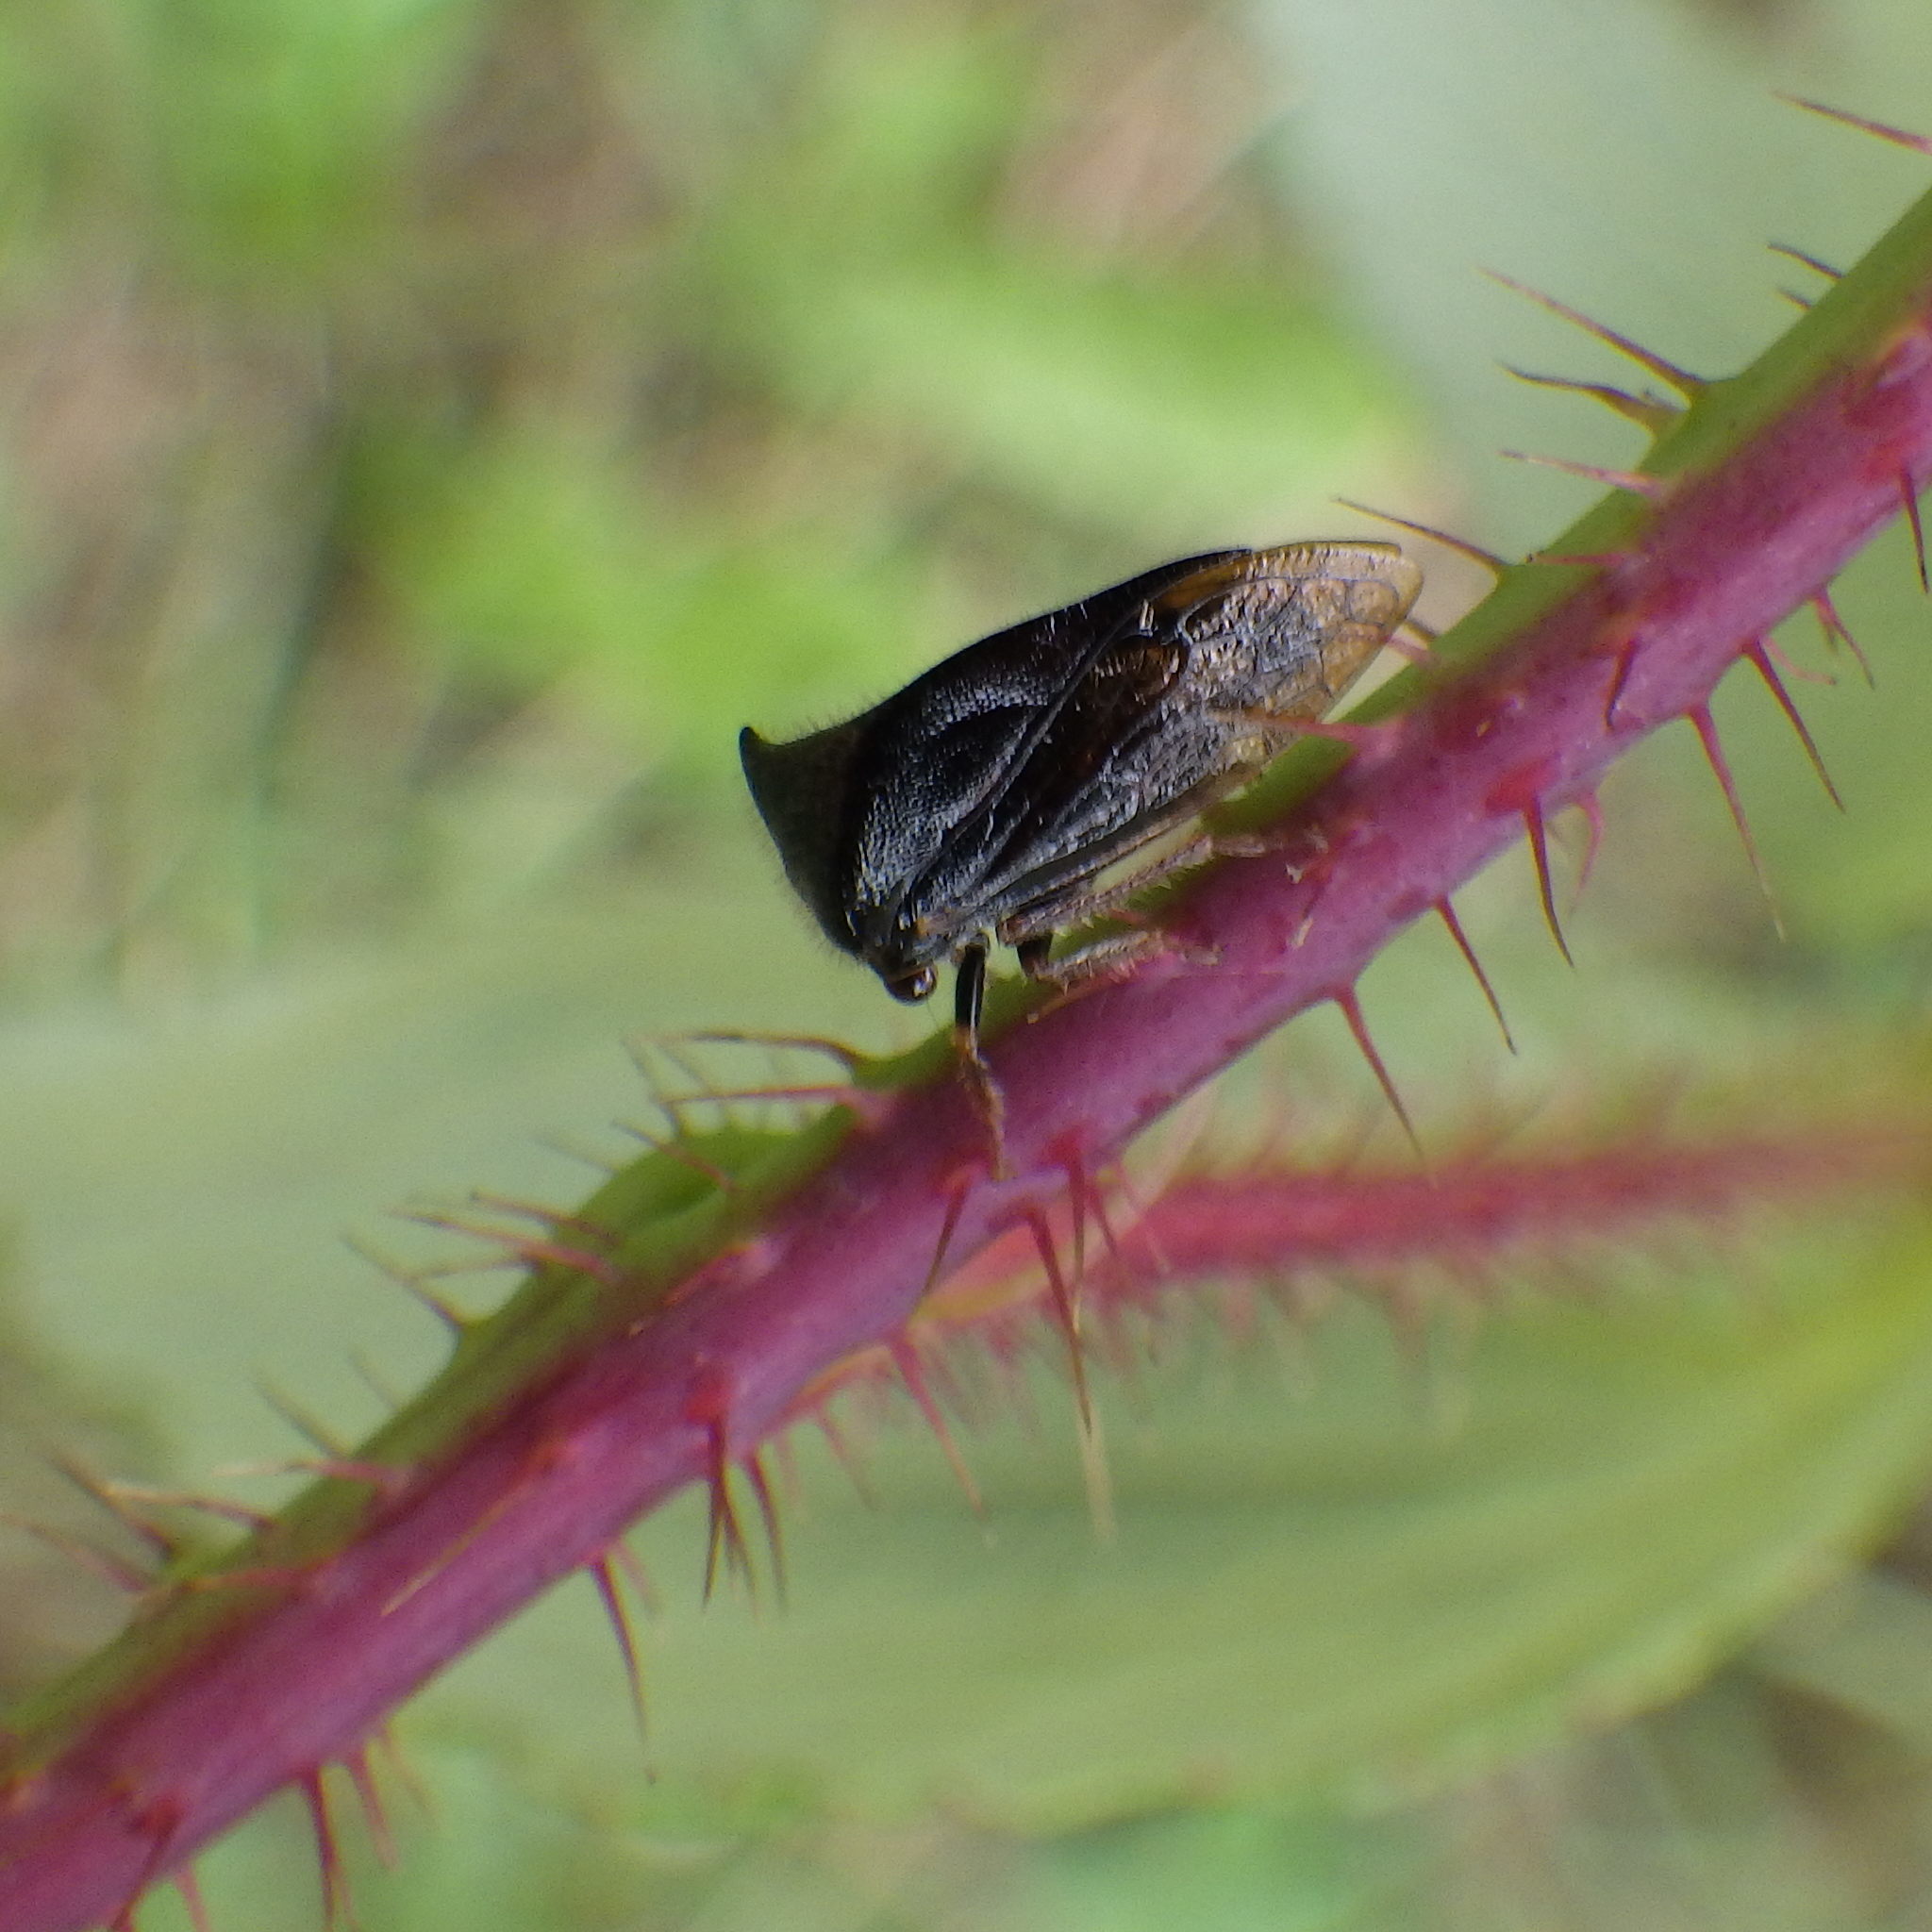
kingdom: Animalia
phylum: Arthropoda
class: Insecta
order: Hemiptera
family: Membracidae
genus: Stictocephala
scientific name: Stictocephala basalis
